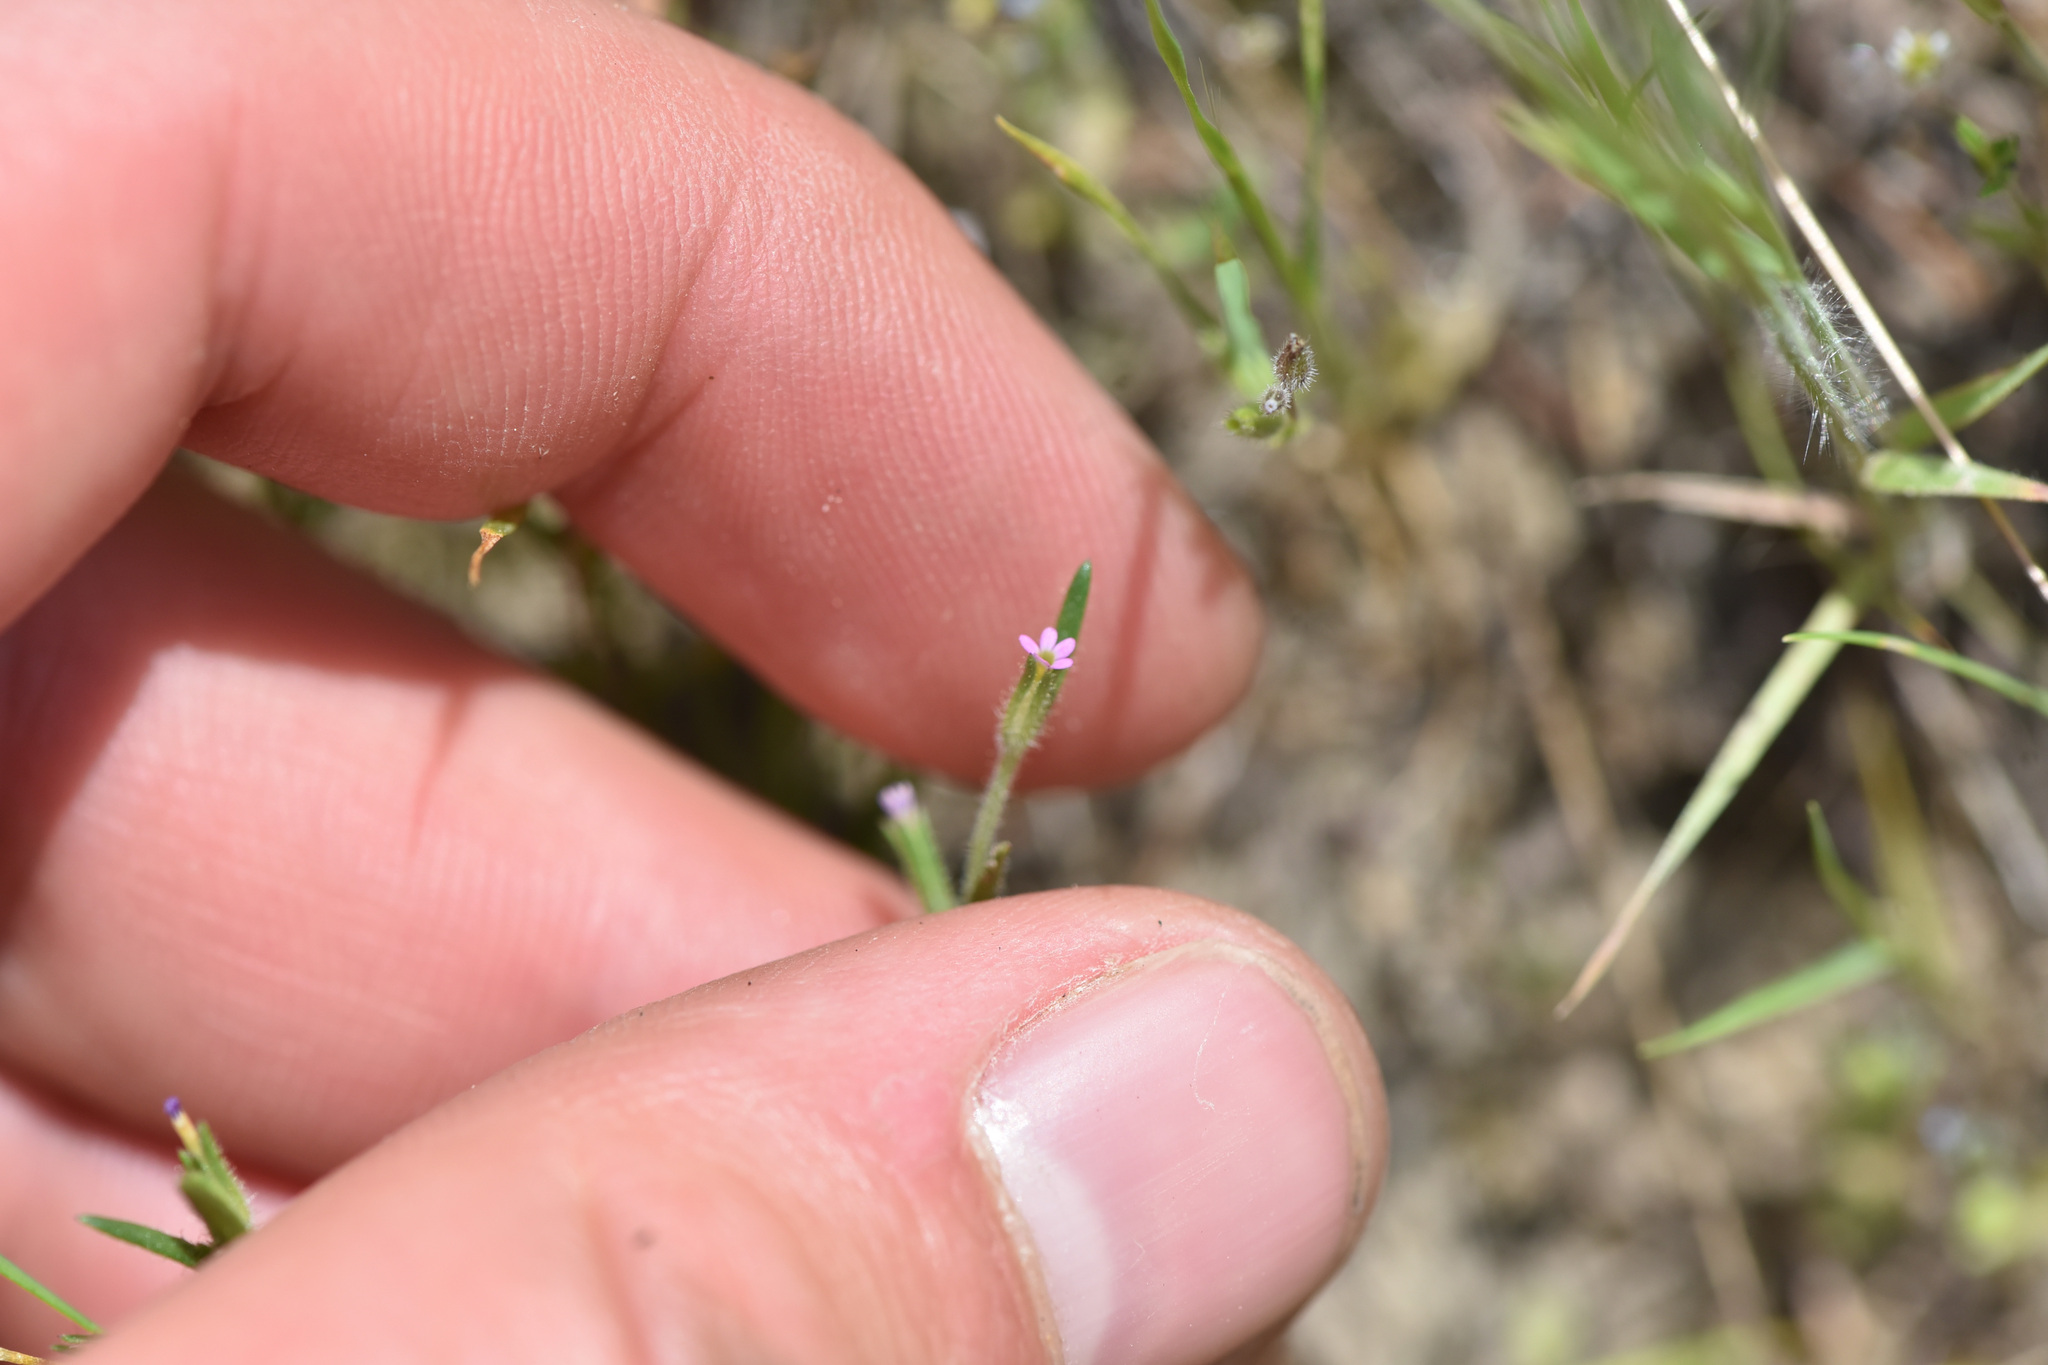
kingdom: Plantae
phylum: Tracheophyta
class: Magnoliopsida
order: Ericales
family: Polemoniaceae
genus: Phlox
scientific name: Phlox gracilis
